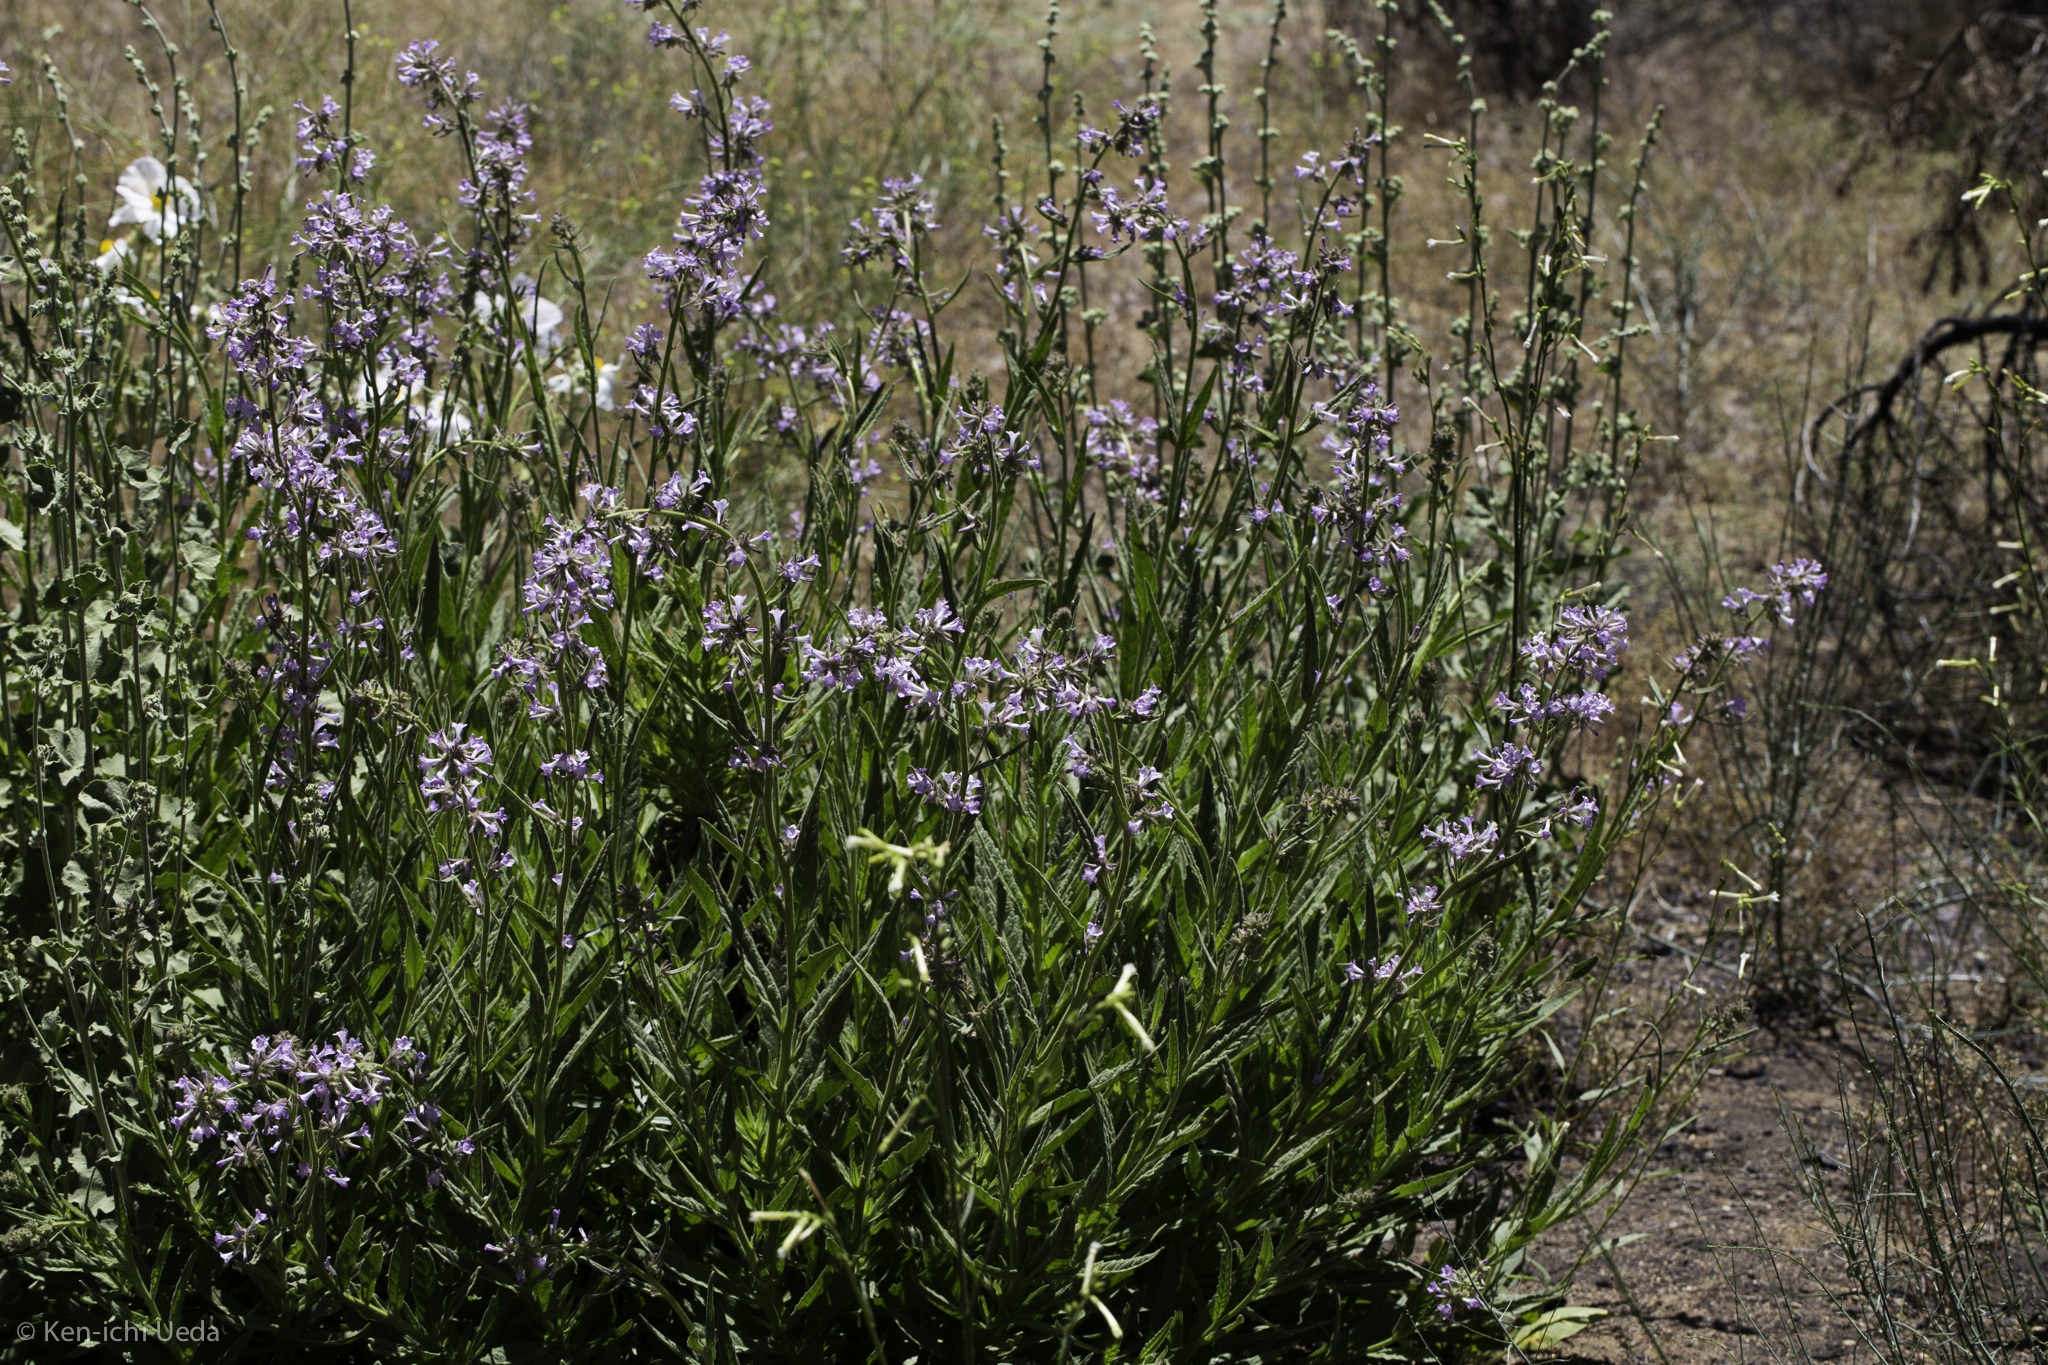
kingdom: Plantae
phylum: Tracheophyta
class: Magnoliopsida
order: Boraginales
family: Namaceae
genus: Turricula
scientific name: Turricula parryi
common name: Poodle-dog-bush
